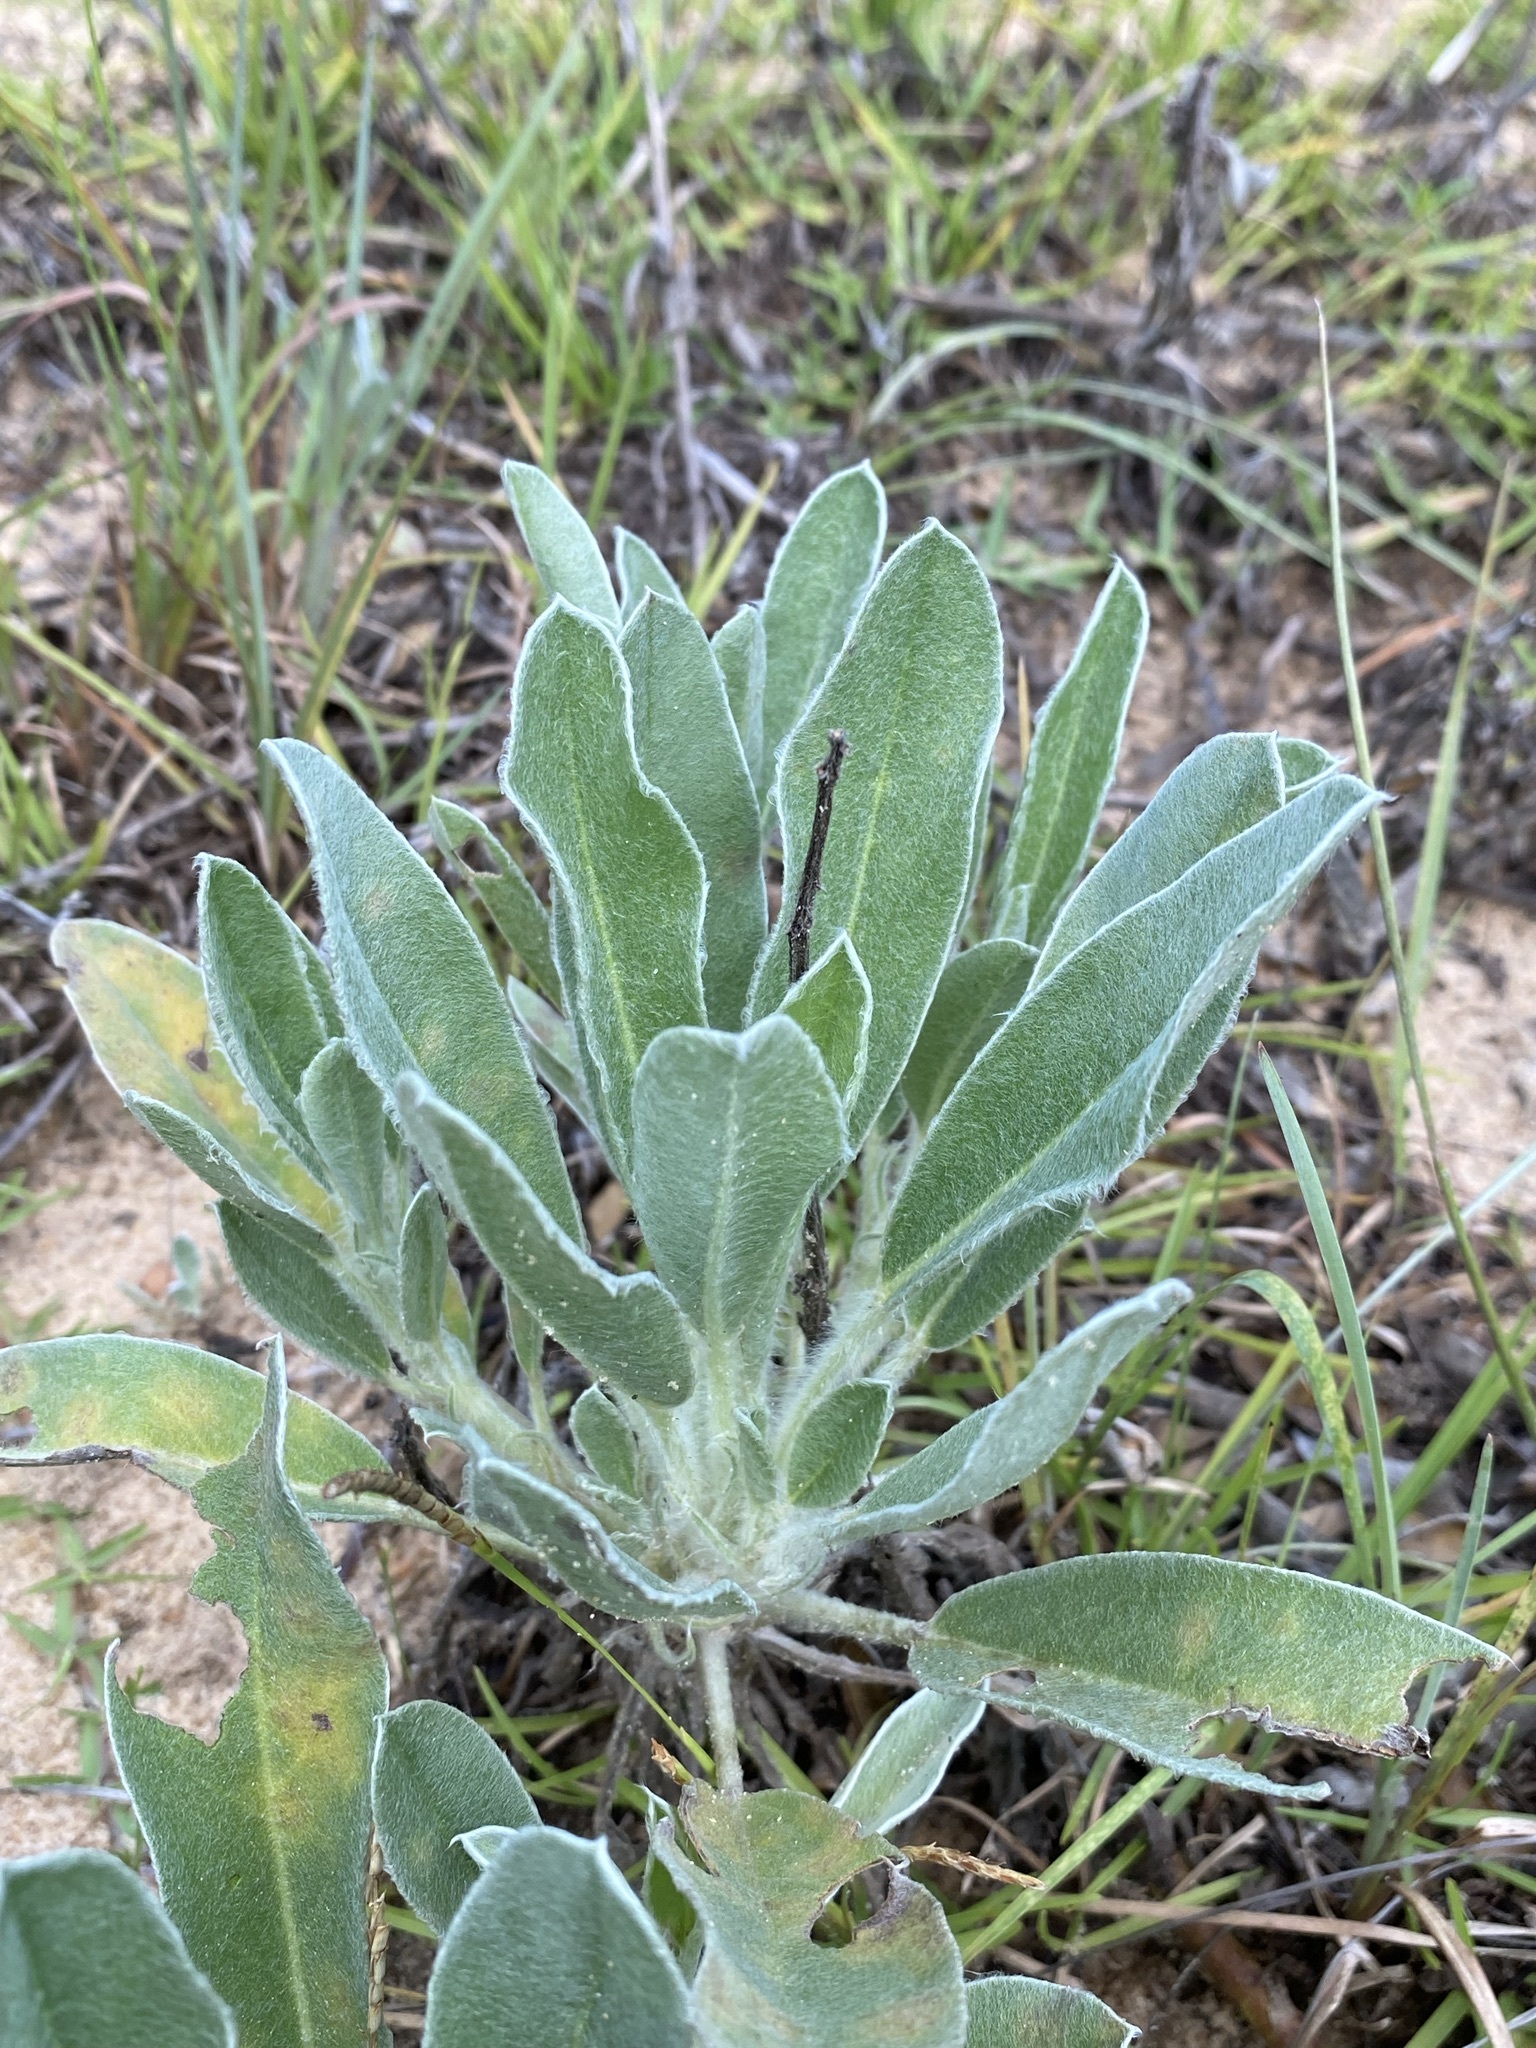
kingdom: Plantae
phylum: Tracheophyta
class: Magnoliopsida
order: Fabales
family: Fabaceae
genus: Lupinus
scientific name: Lupinus villosus
